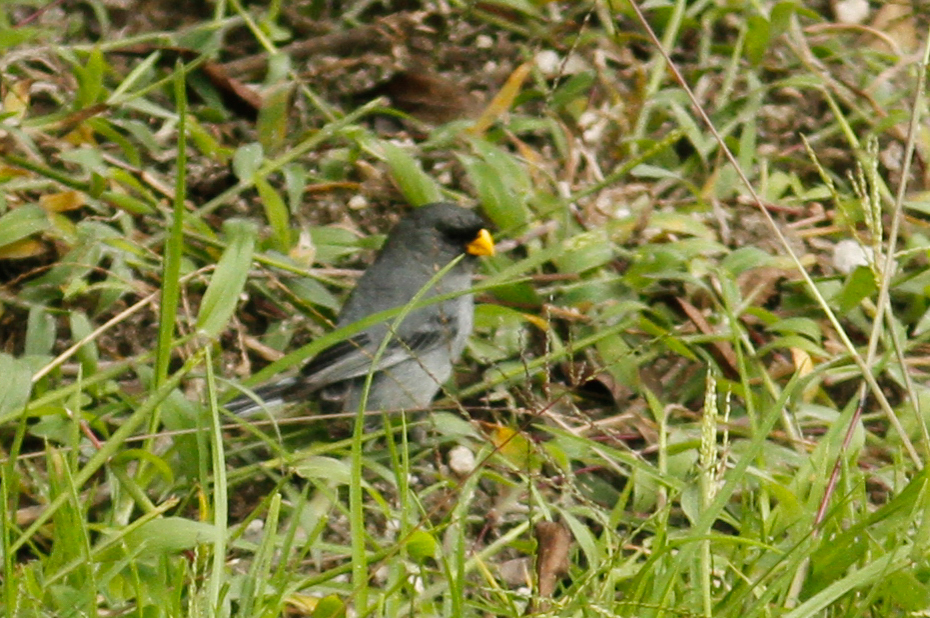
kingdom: Animalia
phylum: Chordata
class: Aves
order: Passeriformes
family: Thraupidae
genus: Catamenia
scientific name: Catamenia analis
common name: Band-tailed seedeater
